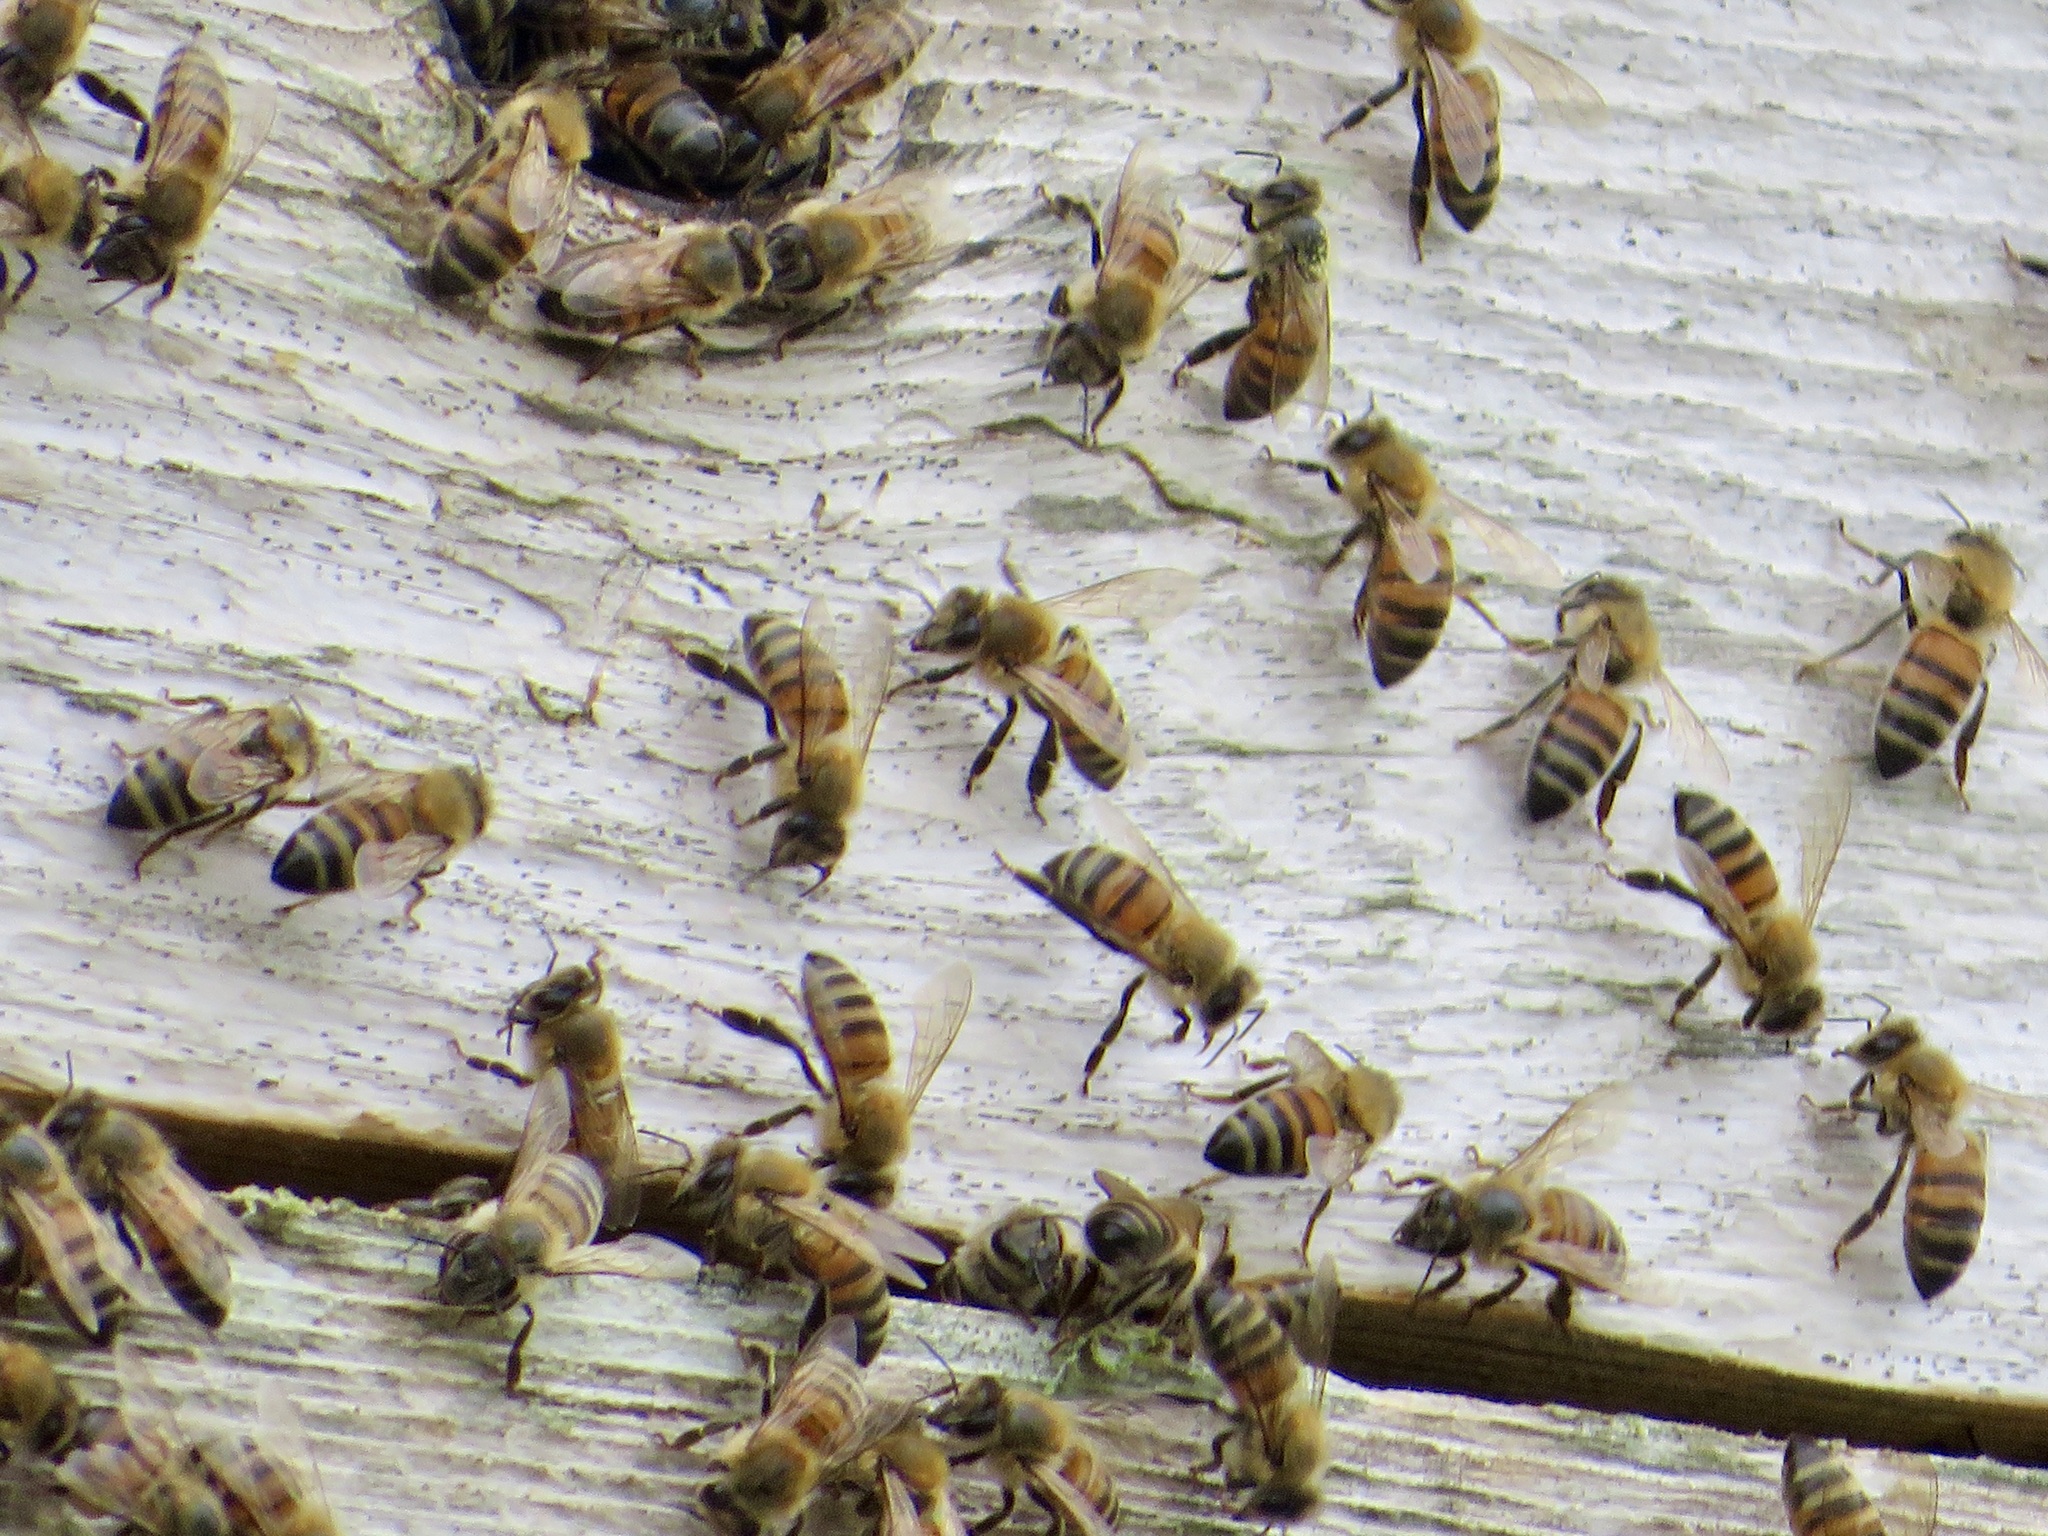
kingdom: Animalia
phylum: Arthropoda
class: Insecta
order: Hymenoptera
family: Apidae
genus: Apis
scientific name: Apis mellifera
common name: Honey bee
